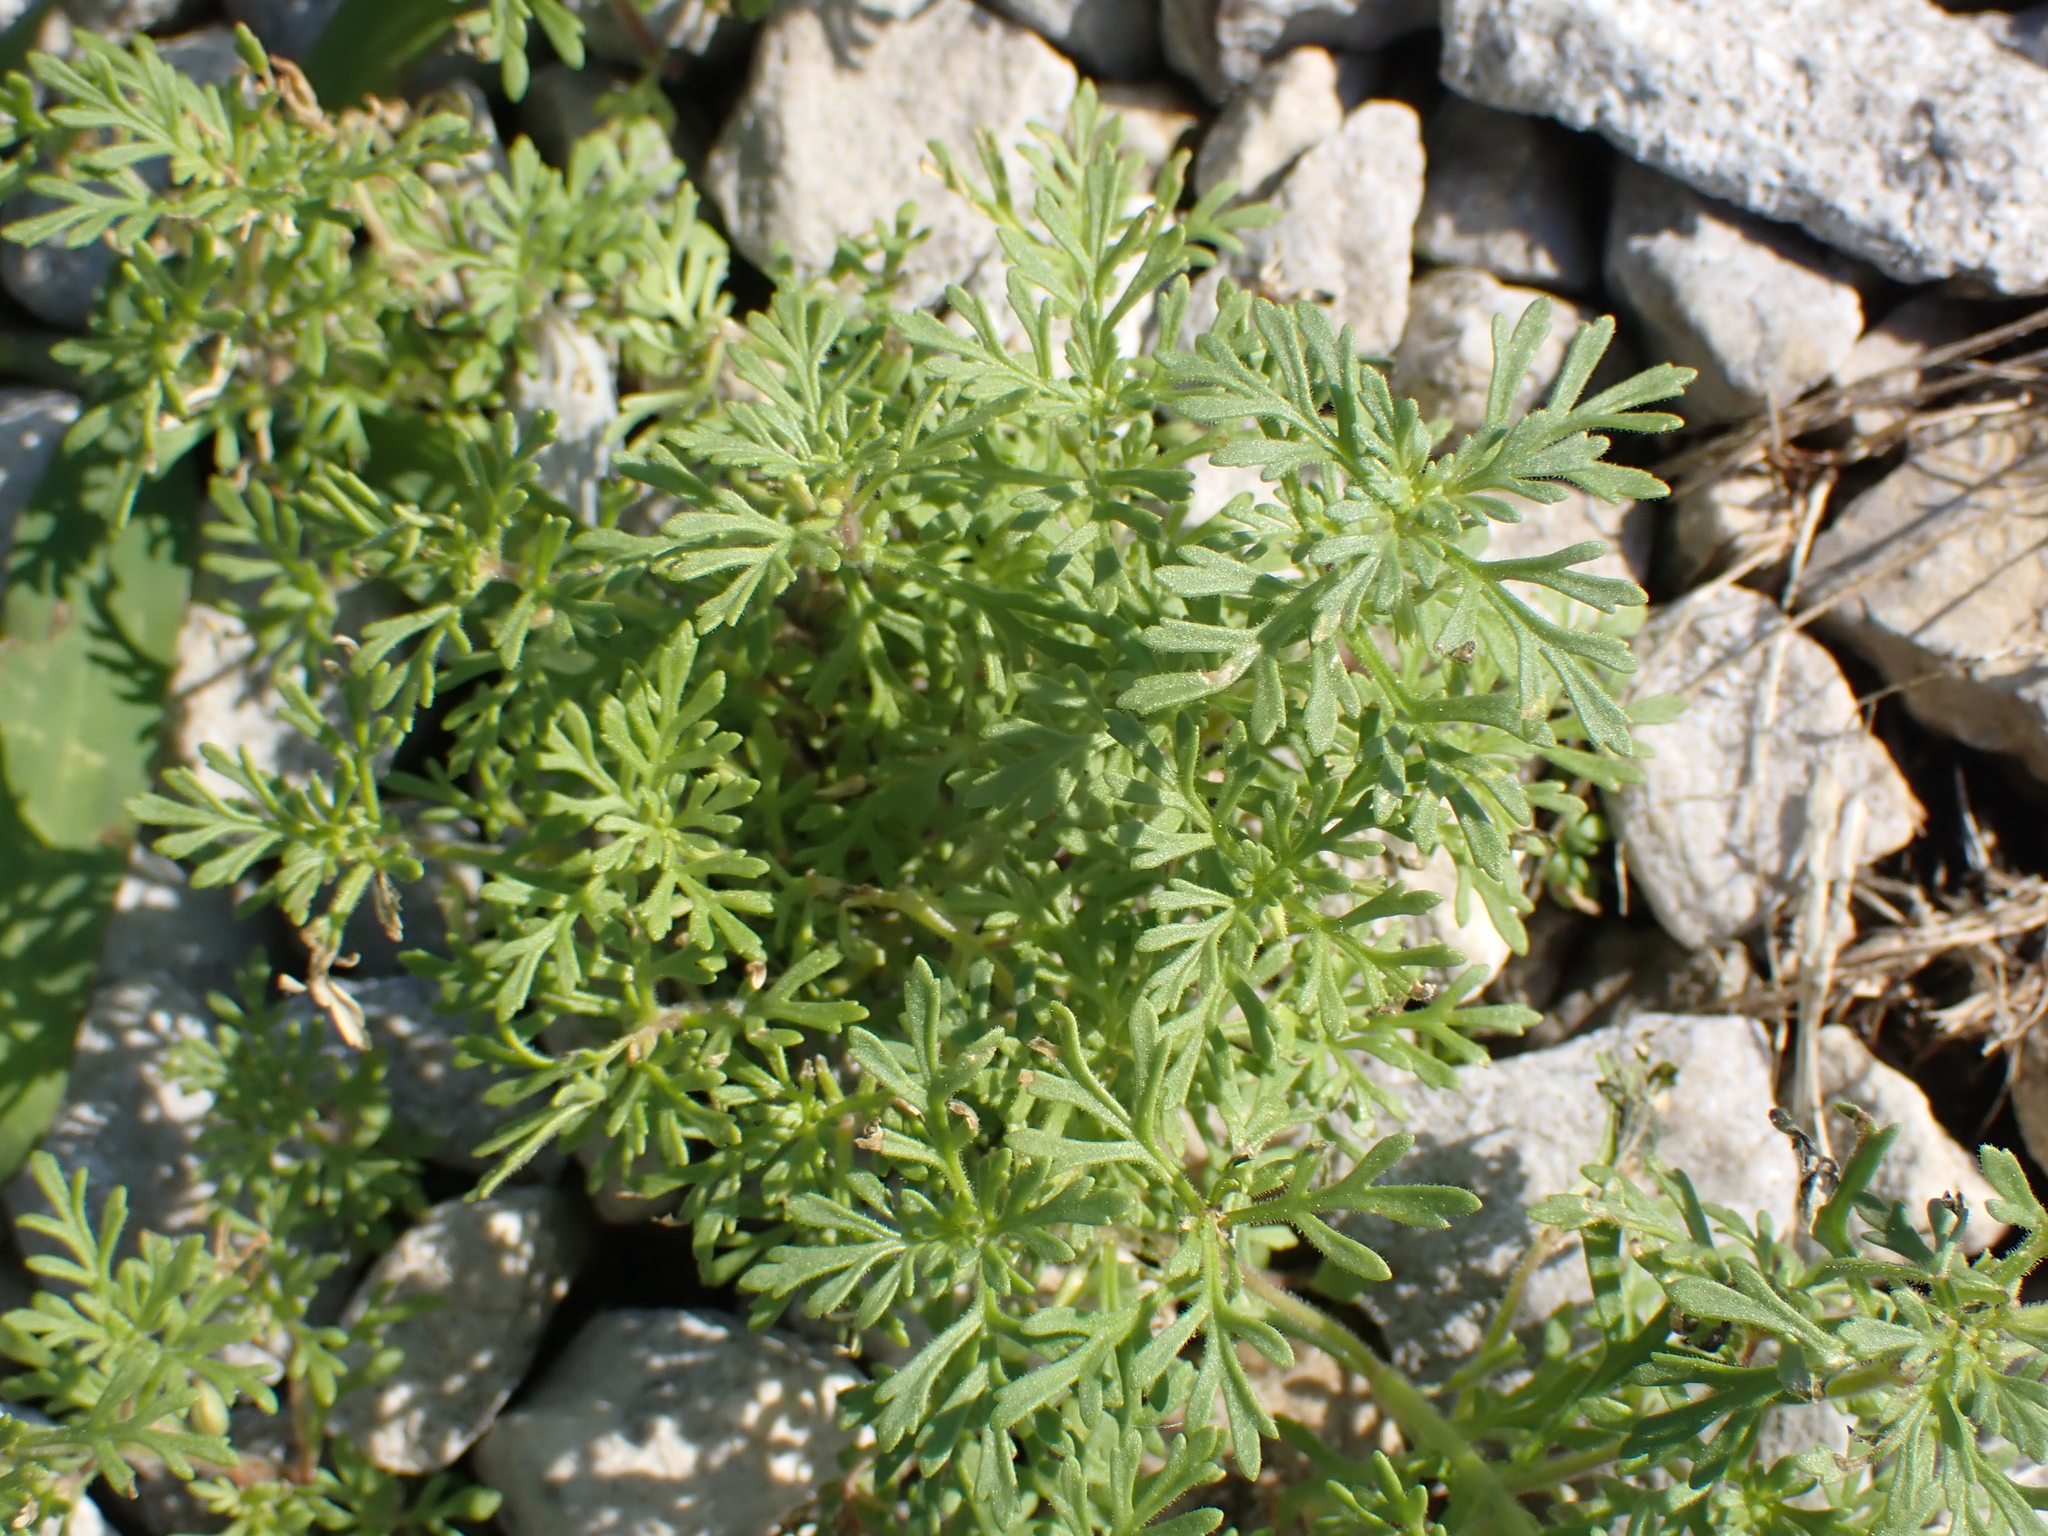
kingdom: Plantae
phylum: Tracheophyta
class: Magnoliopsida
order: Lamiales
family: Plantaginaceae
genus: Leucospora
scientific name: Leucospora multifida
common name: Narrow-leaf paleseed
